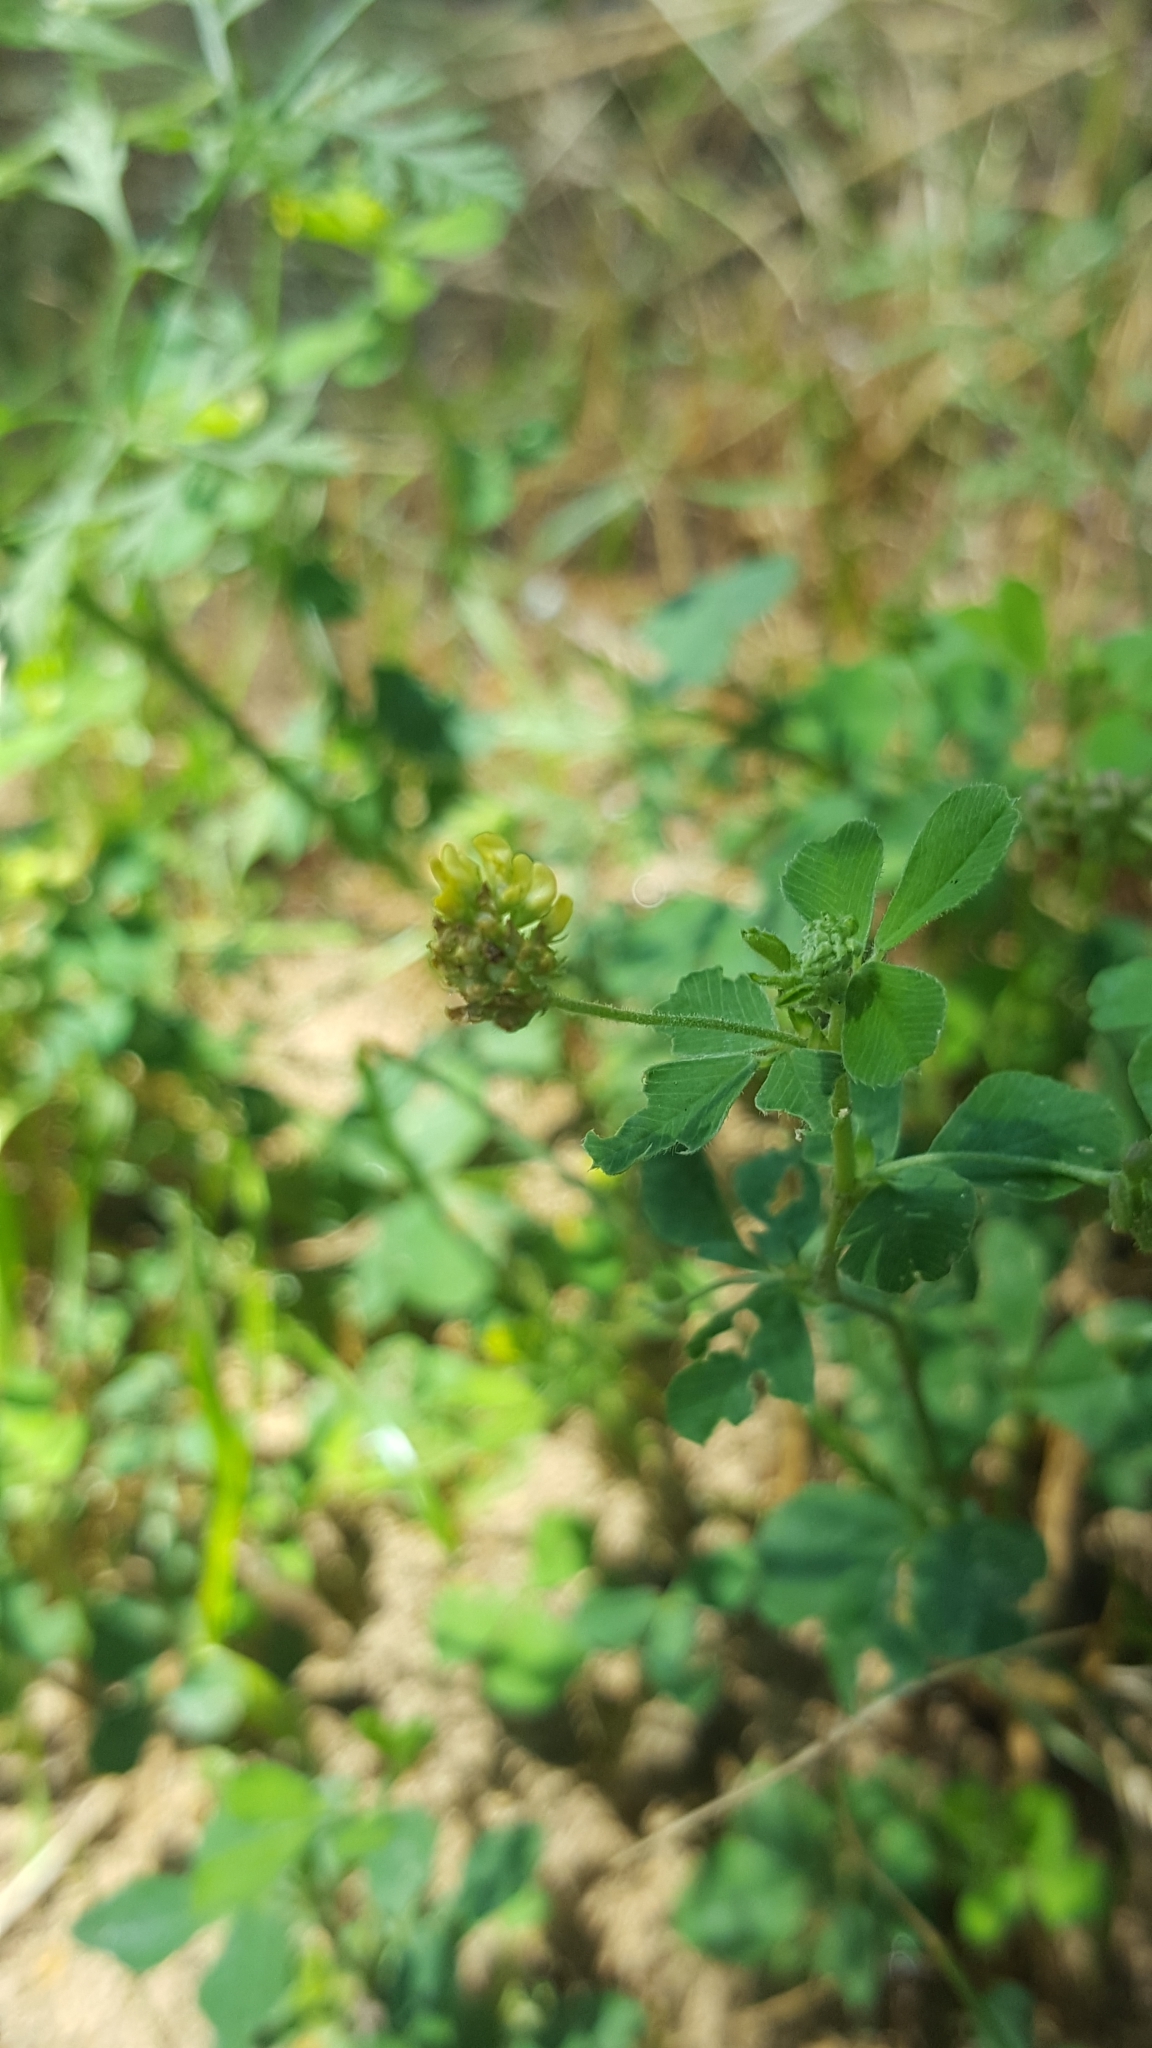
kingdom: Plantae
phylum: Tracheophyta
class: Magnoliopsida
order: Fabales
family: Fabaceae
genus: Medicago
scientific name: Medicago lupulina
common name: Black medick
